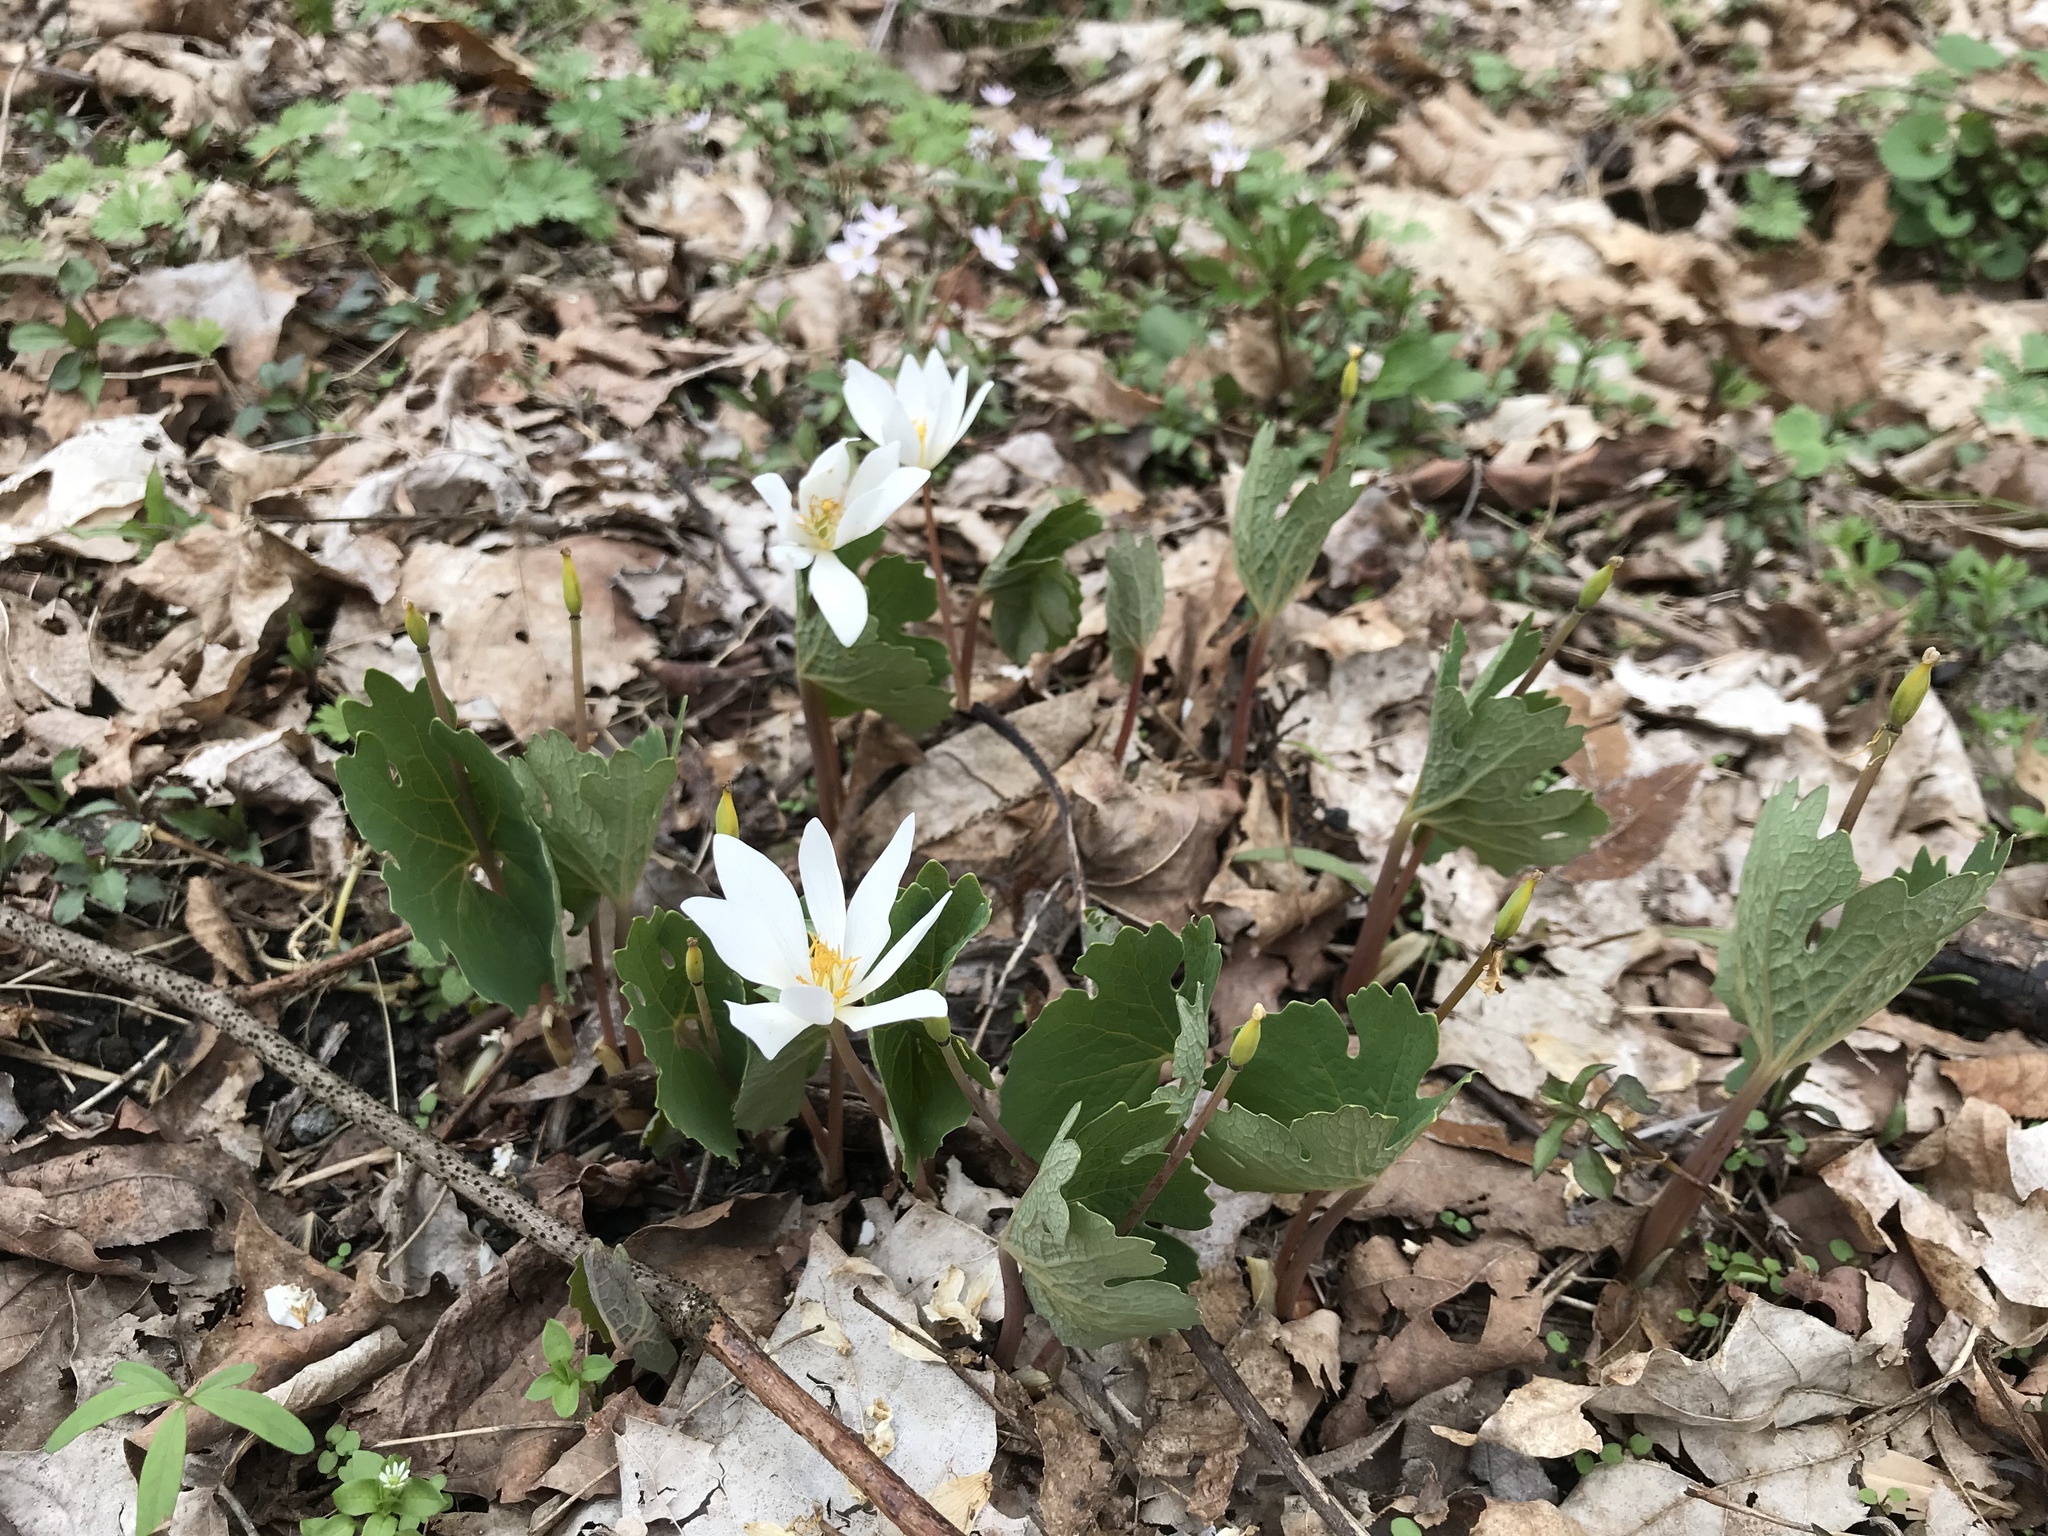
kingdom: Plantae
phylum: Tracheophyta
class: Magnoliopsida
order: Ranunculales
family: Papaveraceae
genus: Sanguinaria
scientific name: Sanguinaria canadensis
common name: Bloodroot
